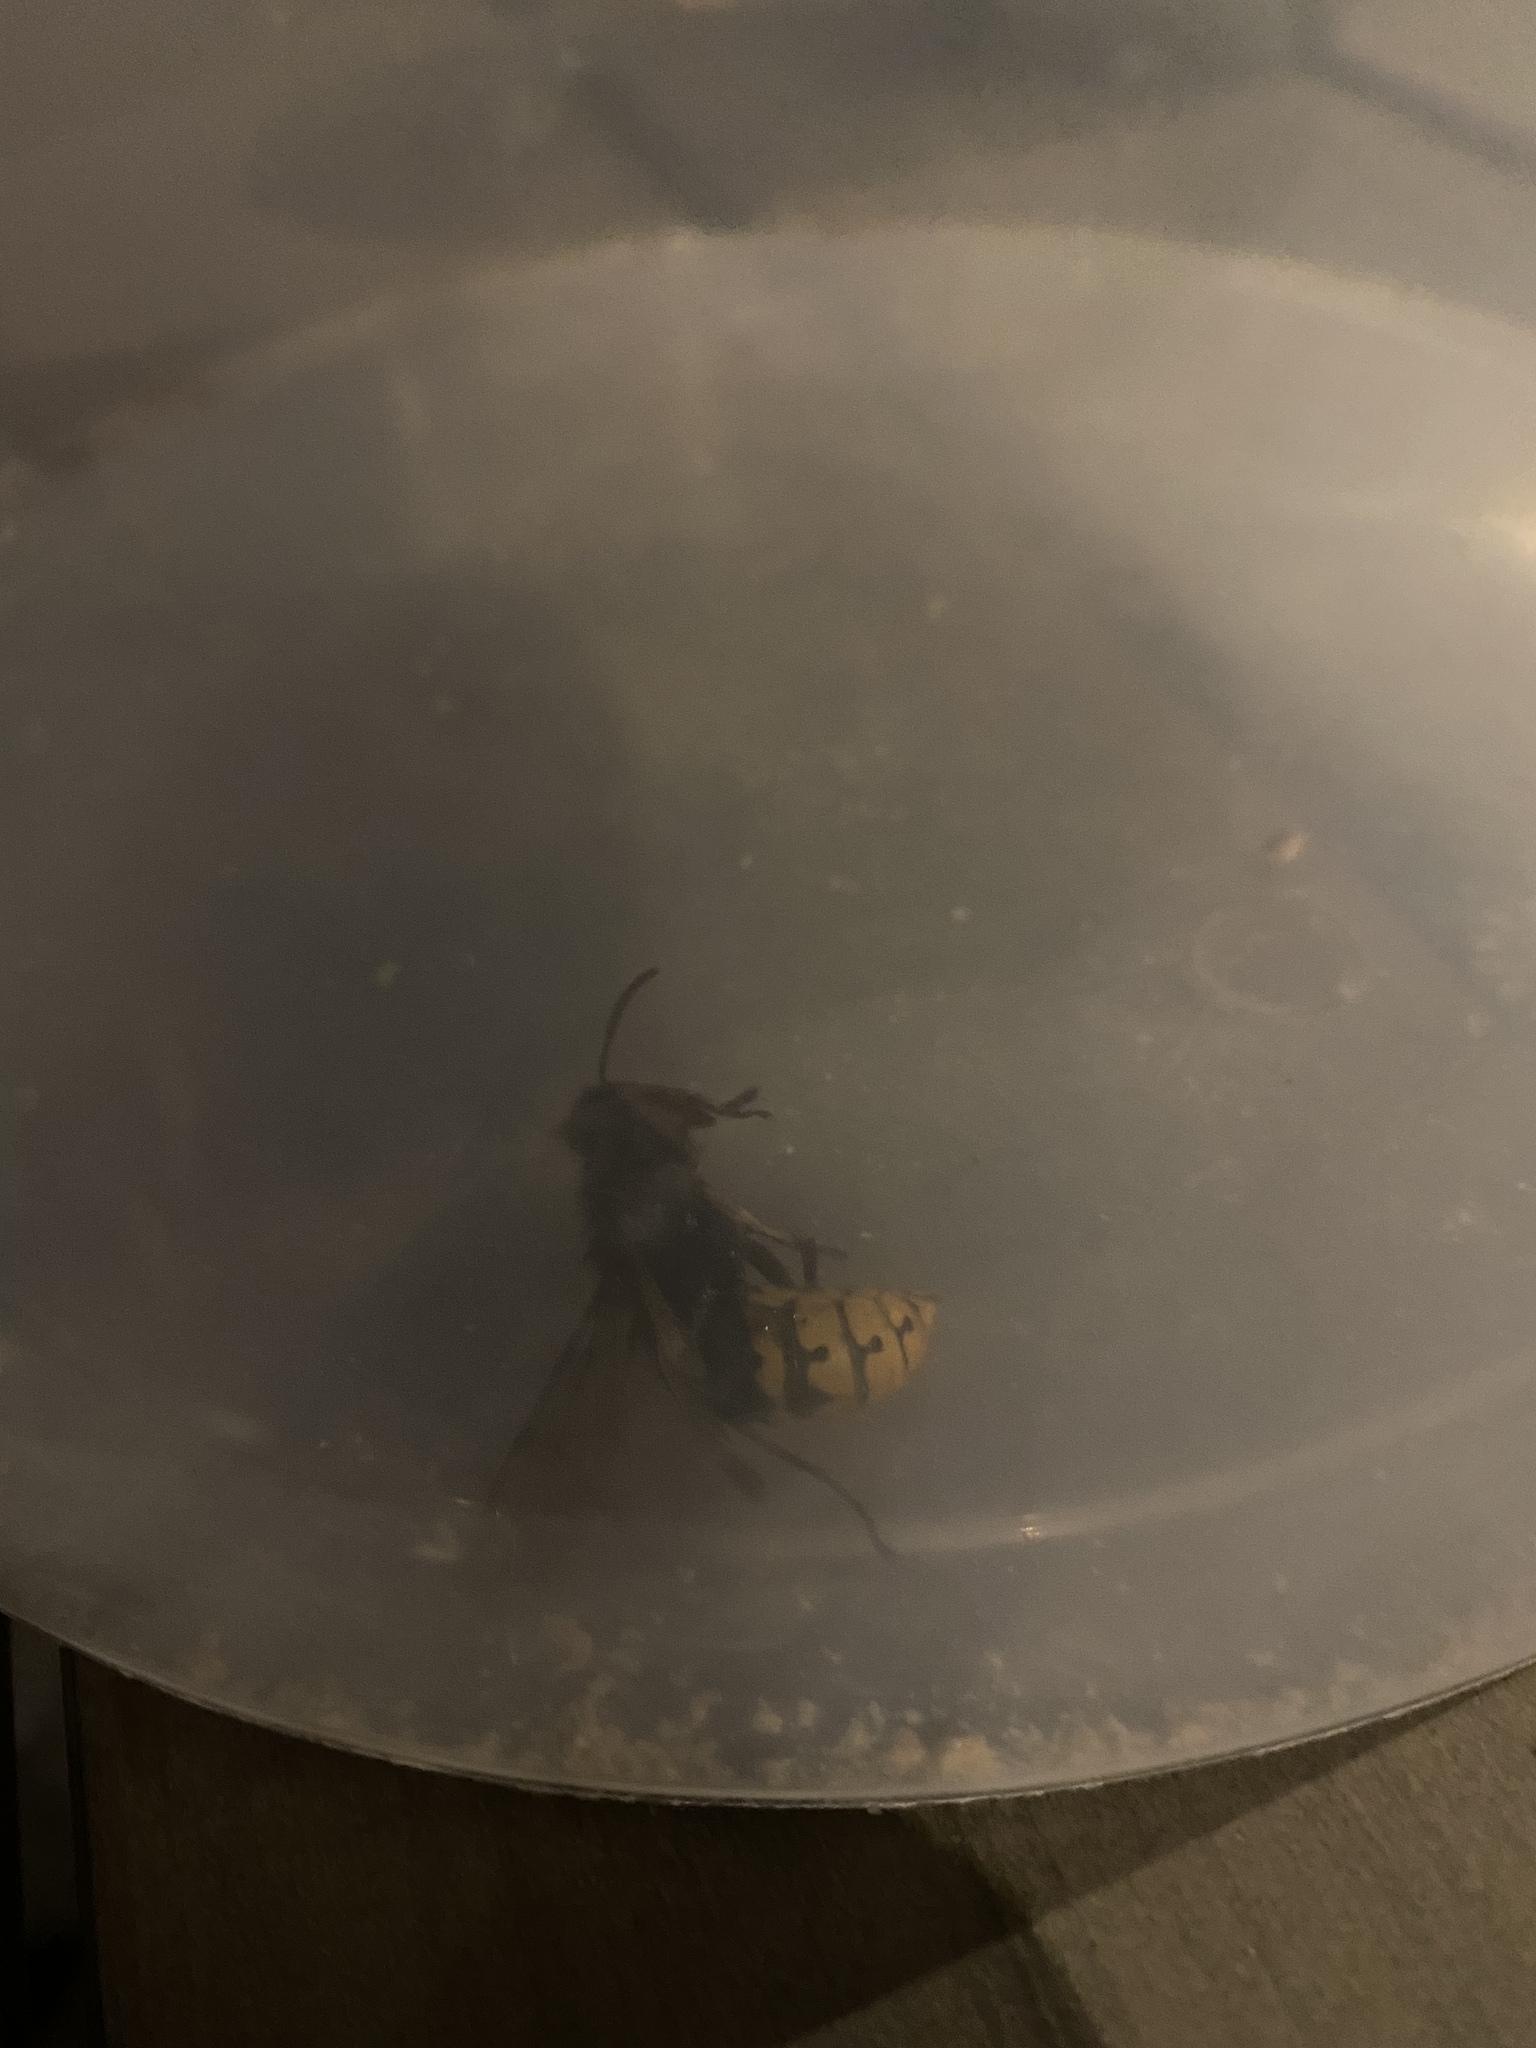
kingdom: Animalia
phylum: Arthropoda
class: Insecta
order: Hymenoptera
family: Vespidae
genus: Vespa
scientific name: Vespa crabro
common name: Hornet
